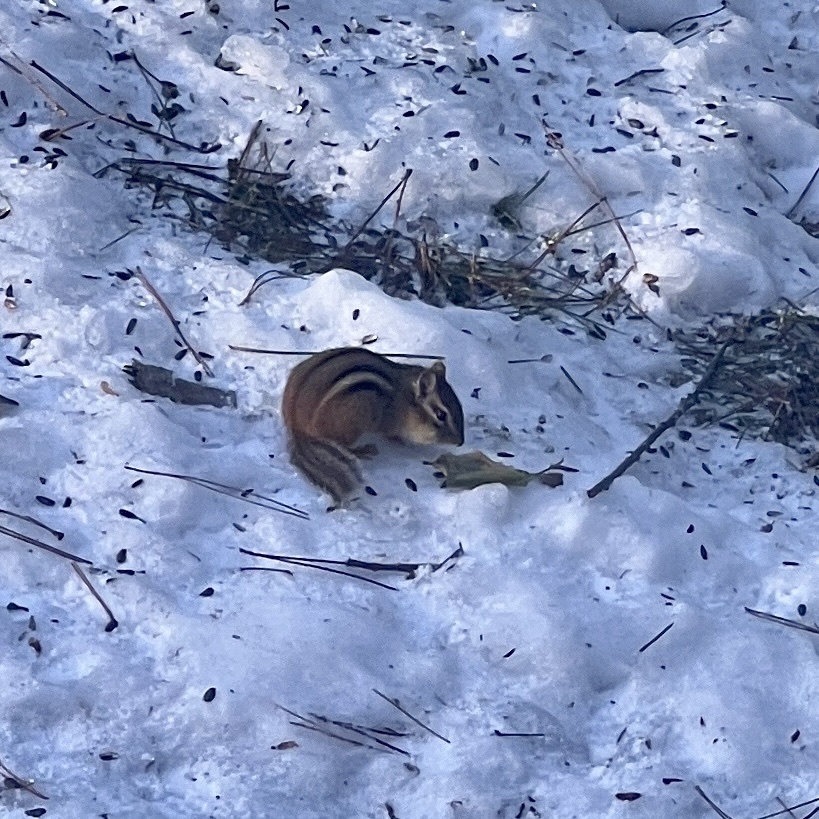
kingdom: Animalia
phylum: Chordata
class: Mammalia
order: Rodentia
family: Sciuridae
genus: Tamias
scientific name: Tamias striatus
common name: Eastern chipmunk
